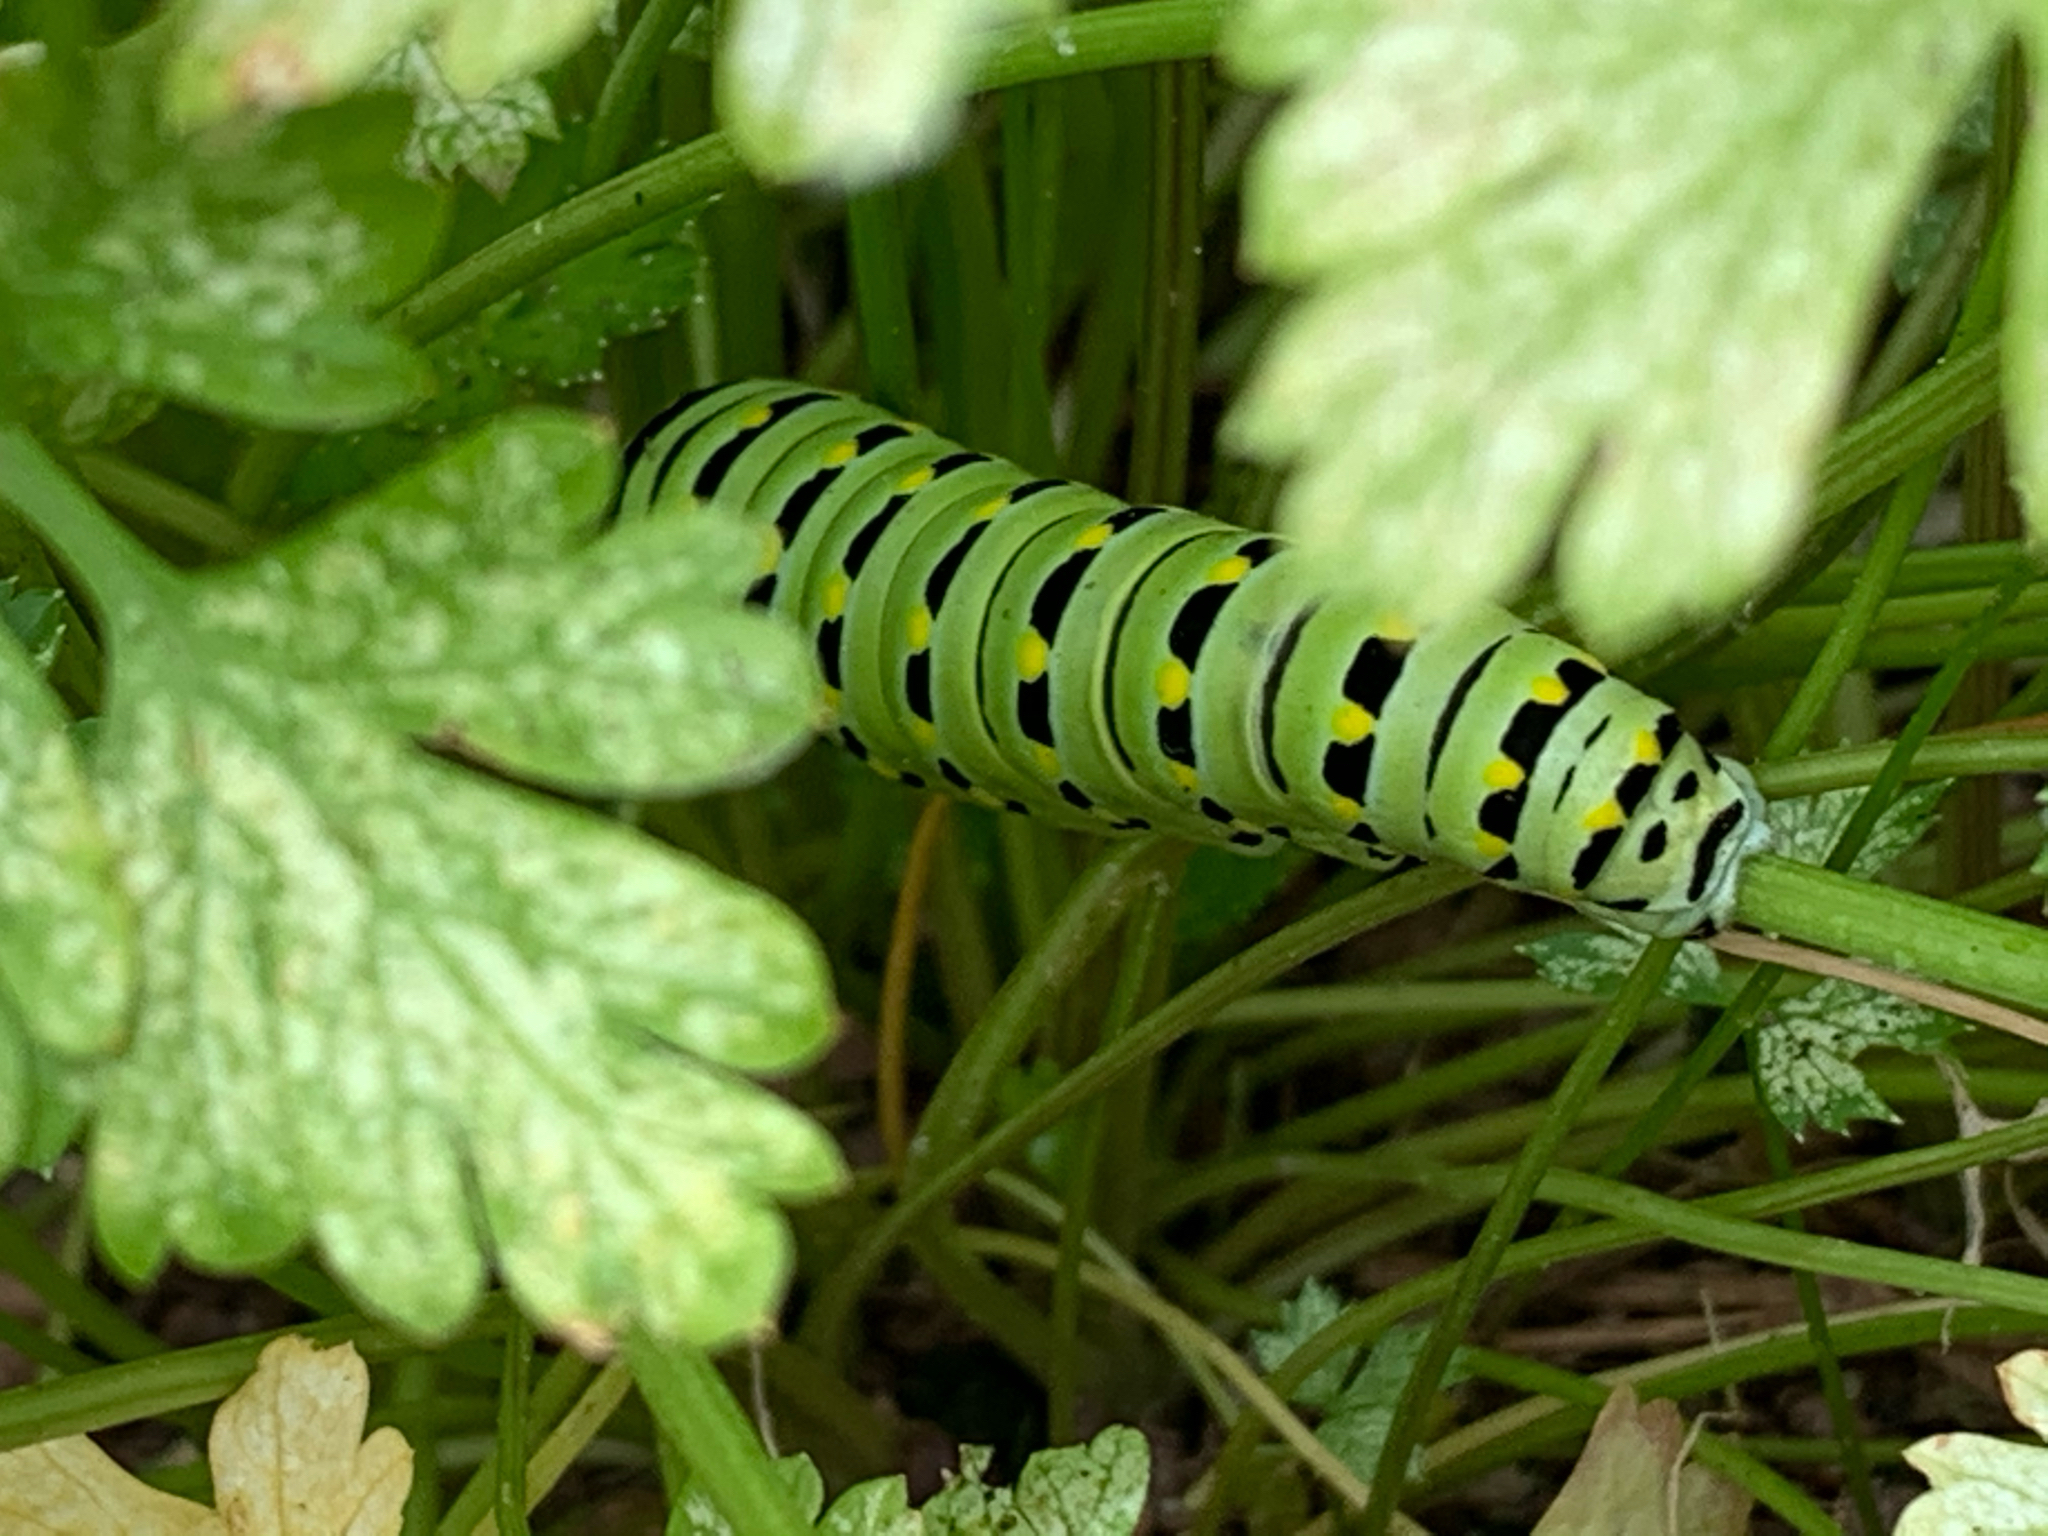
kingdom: Animalia
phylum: Arthropoda
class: Insecta
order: Lepidoptera
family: Papilionidae
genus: Papilio
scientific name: Papilio polyxenes
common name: Black swallowtail
